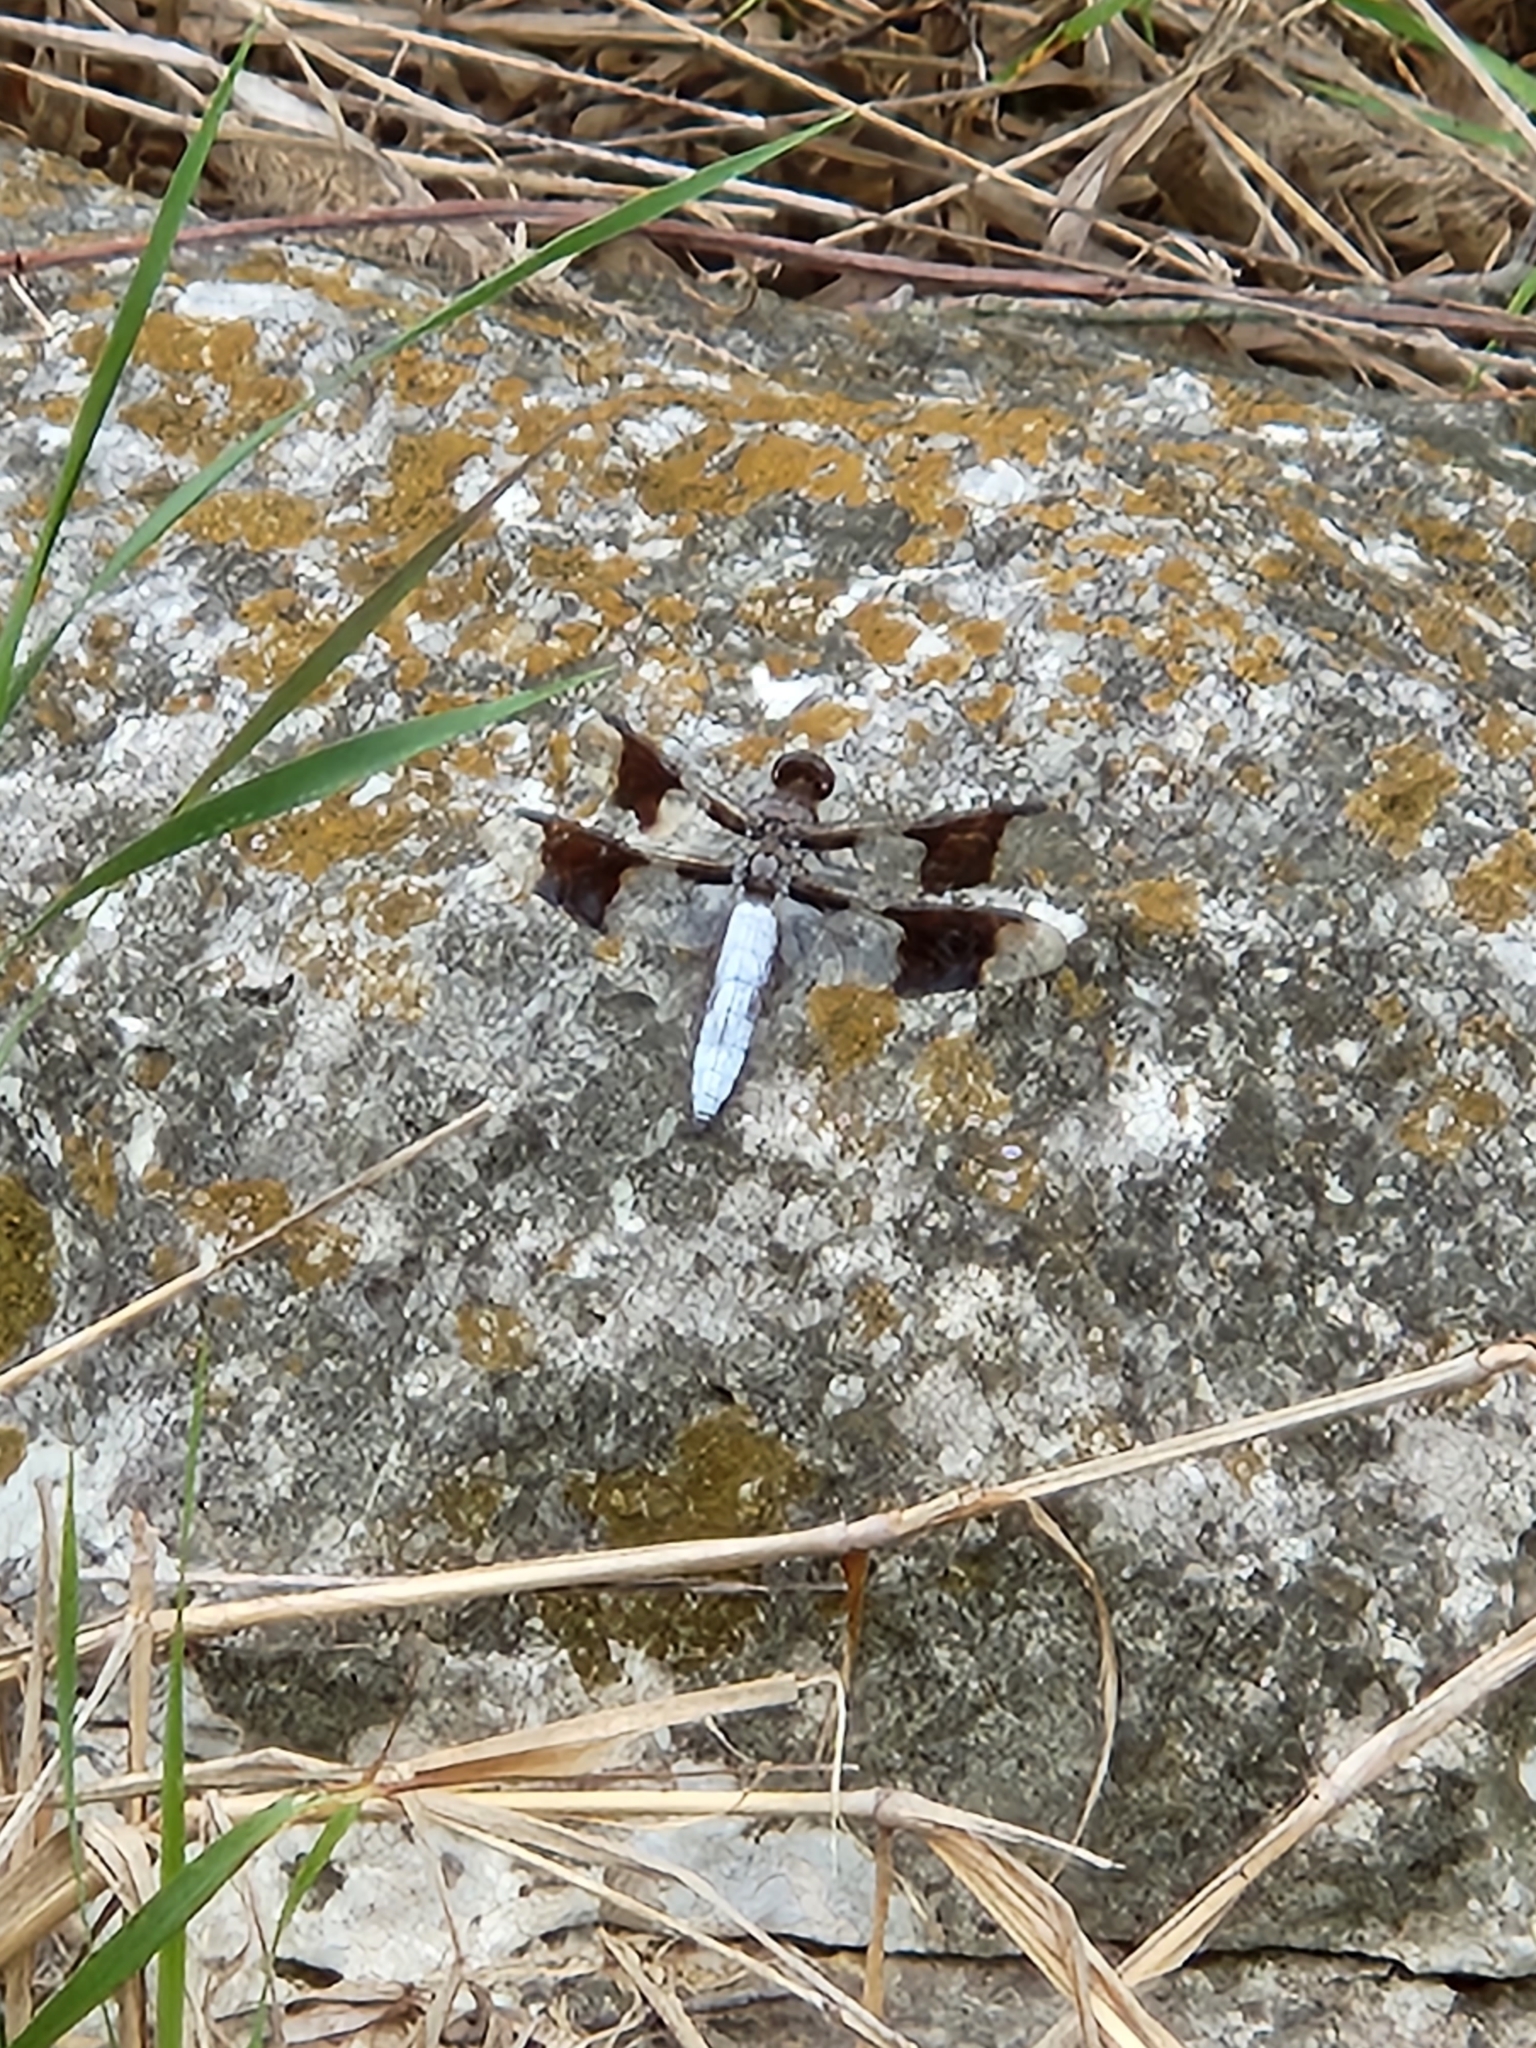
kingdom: Animalia
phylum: Arthropoda
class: Insecta
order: Odonata
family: Libellulidae
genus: Plathemis
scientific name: Plathemis lydia
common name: Common whitetail
